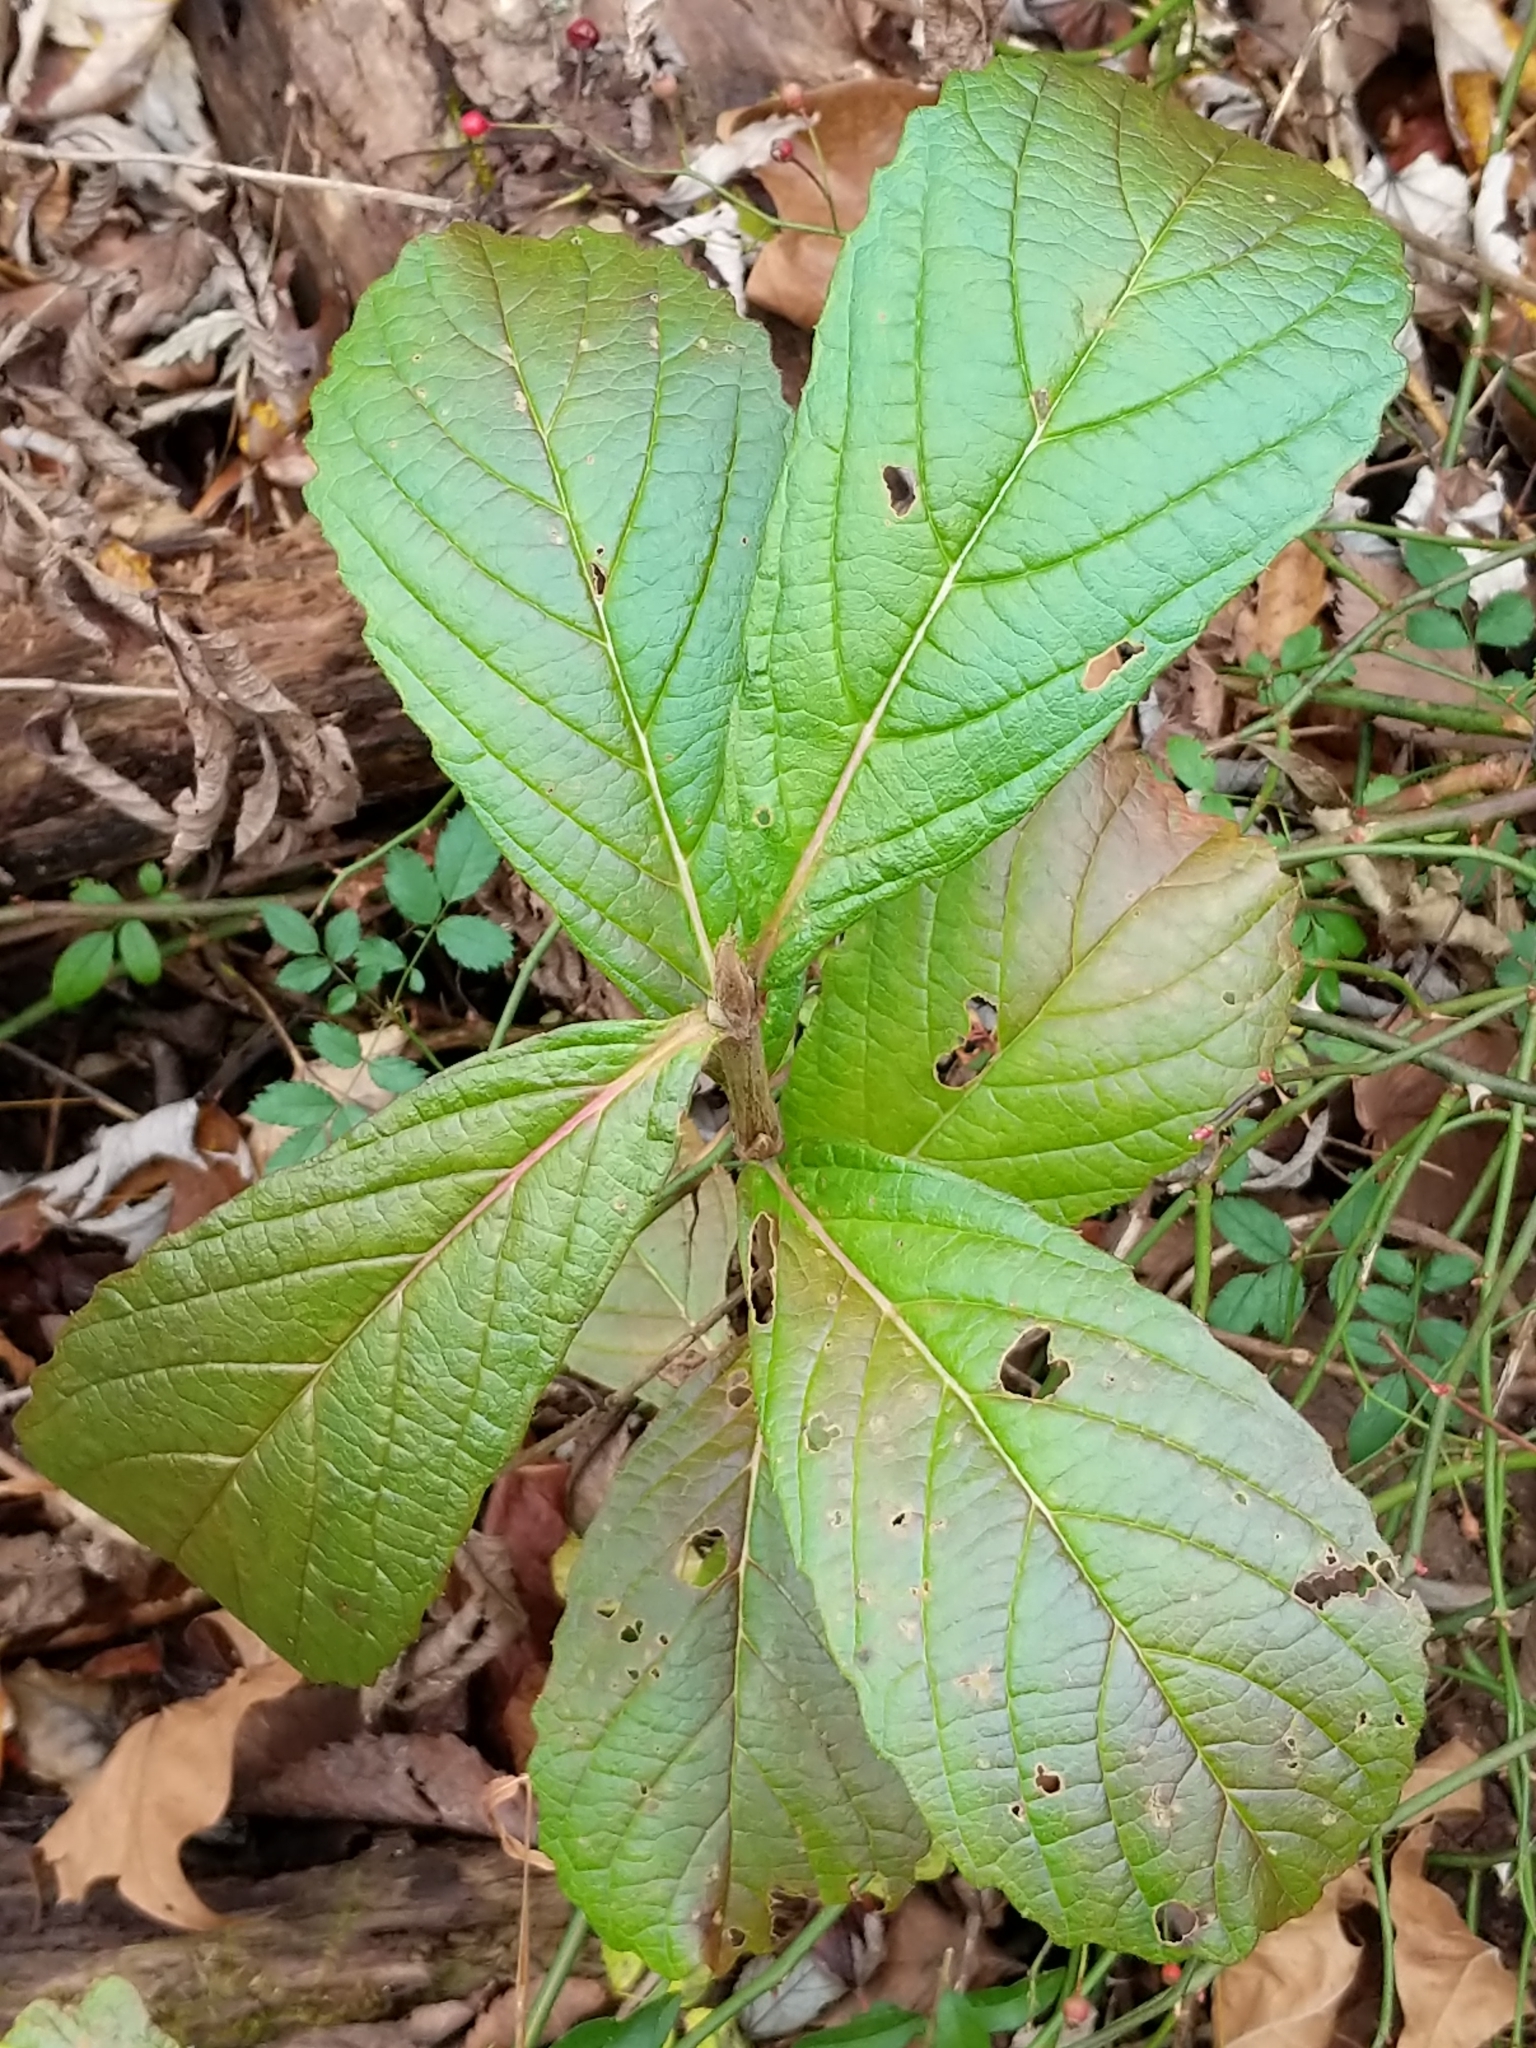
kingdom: Plantae
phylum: Tracheophyta
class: Magnoliopsida
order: Dipsacales
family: Viburnaceae
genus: Viburnum
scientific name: Viburnum sieboldii
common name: Siebold's arrowwood
